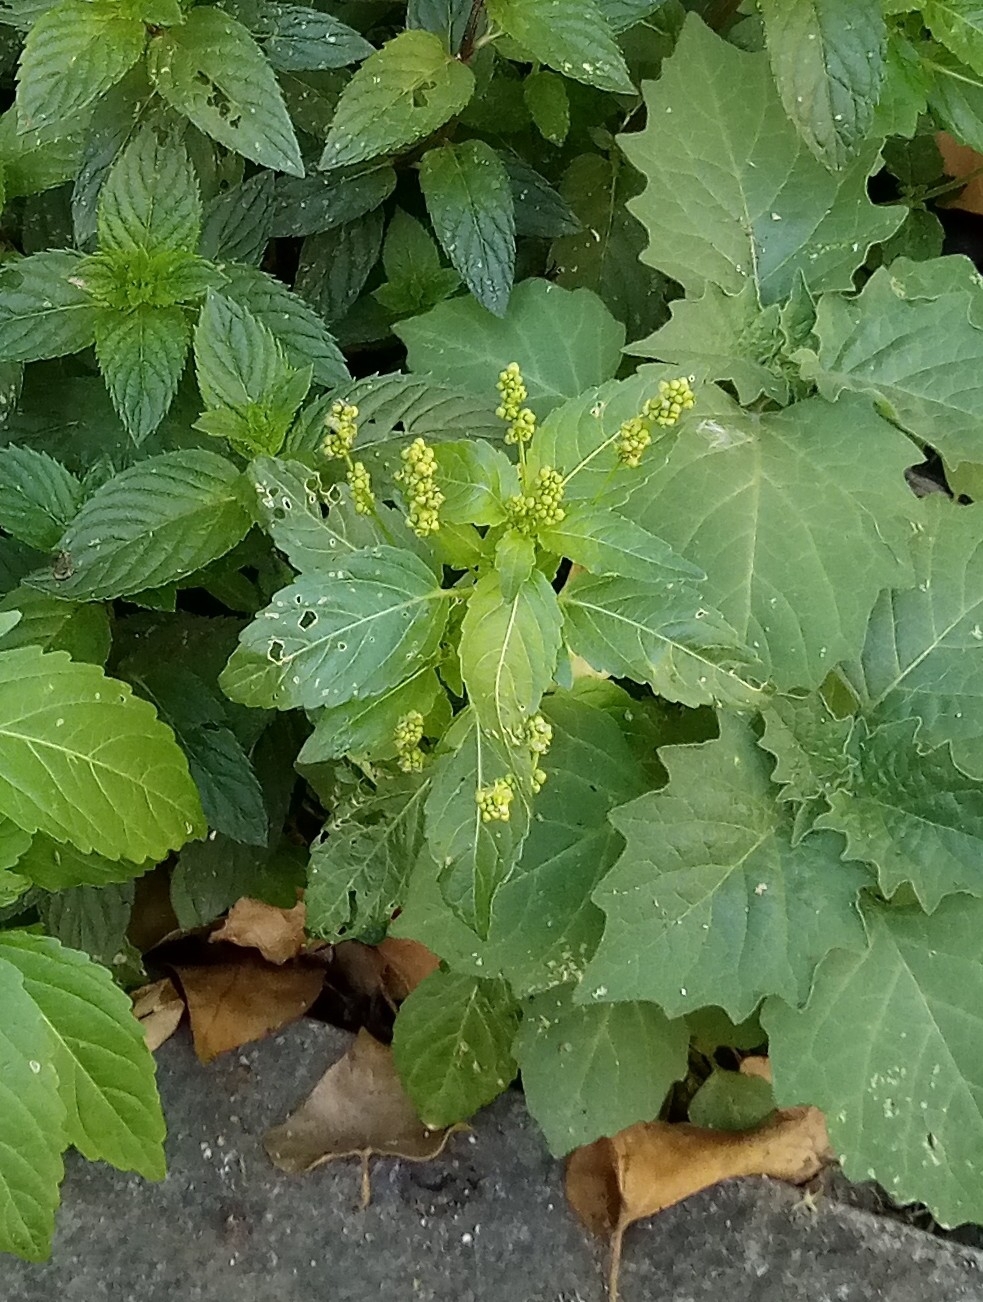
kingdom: Plantae
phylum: Tracheophyta
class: Magnoliopsida
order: Malpighiales
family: Euphorbiaceae
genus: Mercurialis
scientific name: Mercurialis annua
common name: Annual mercury
